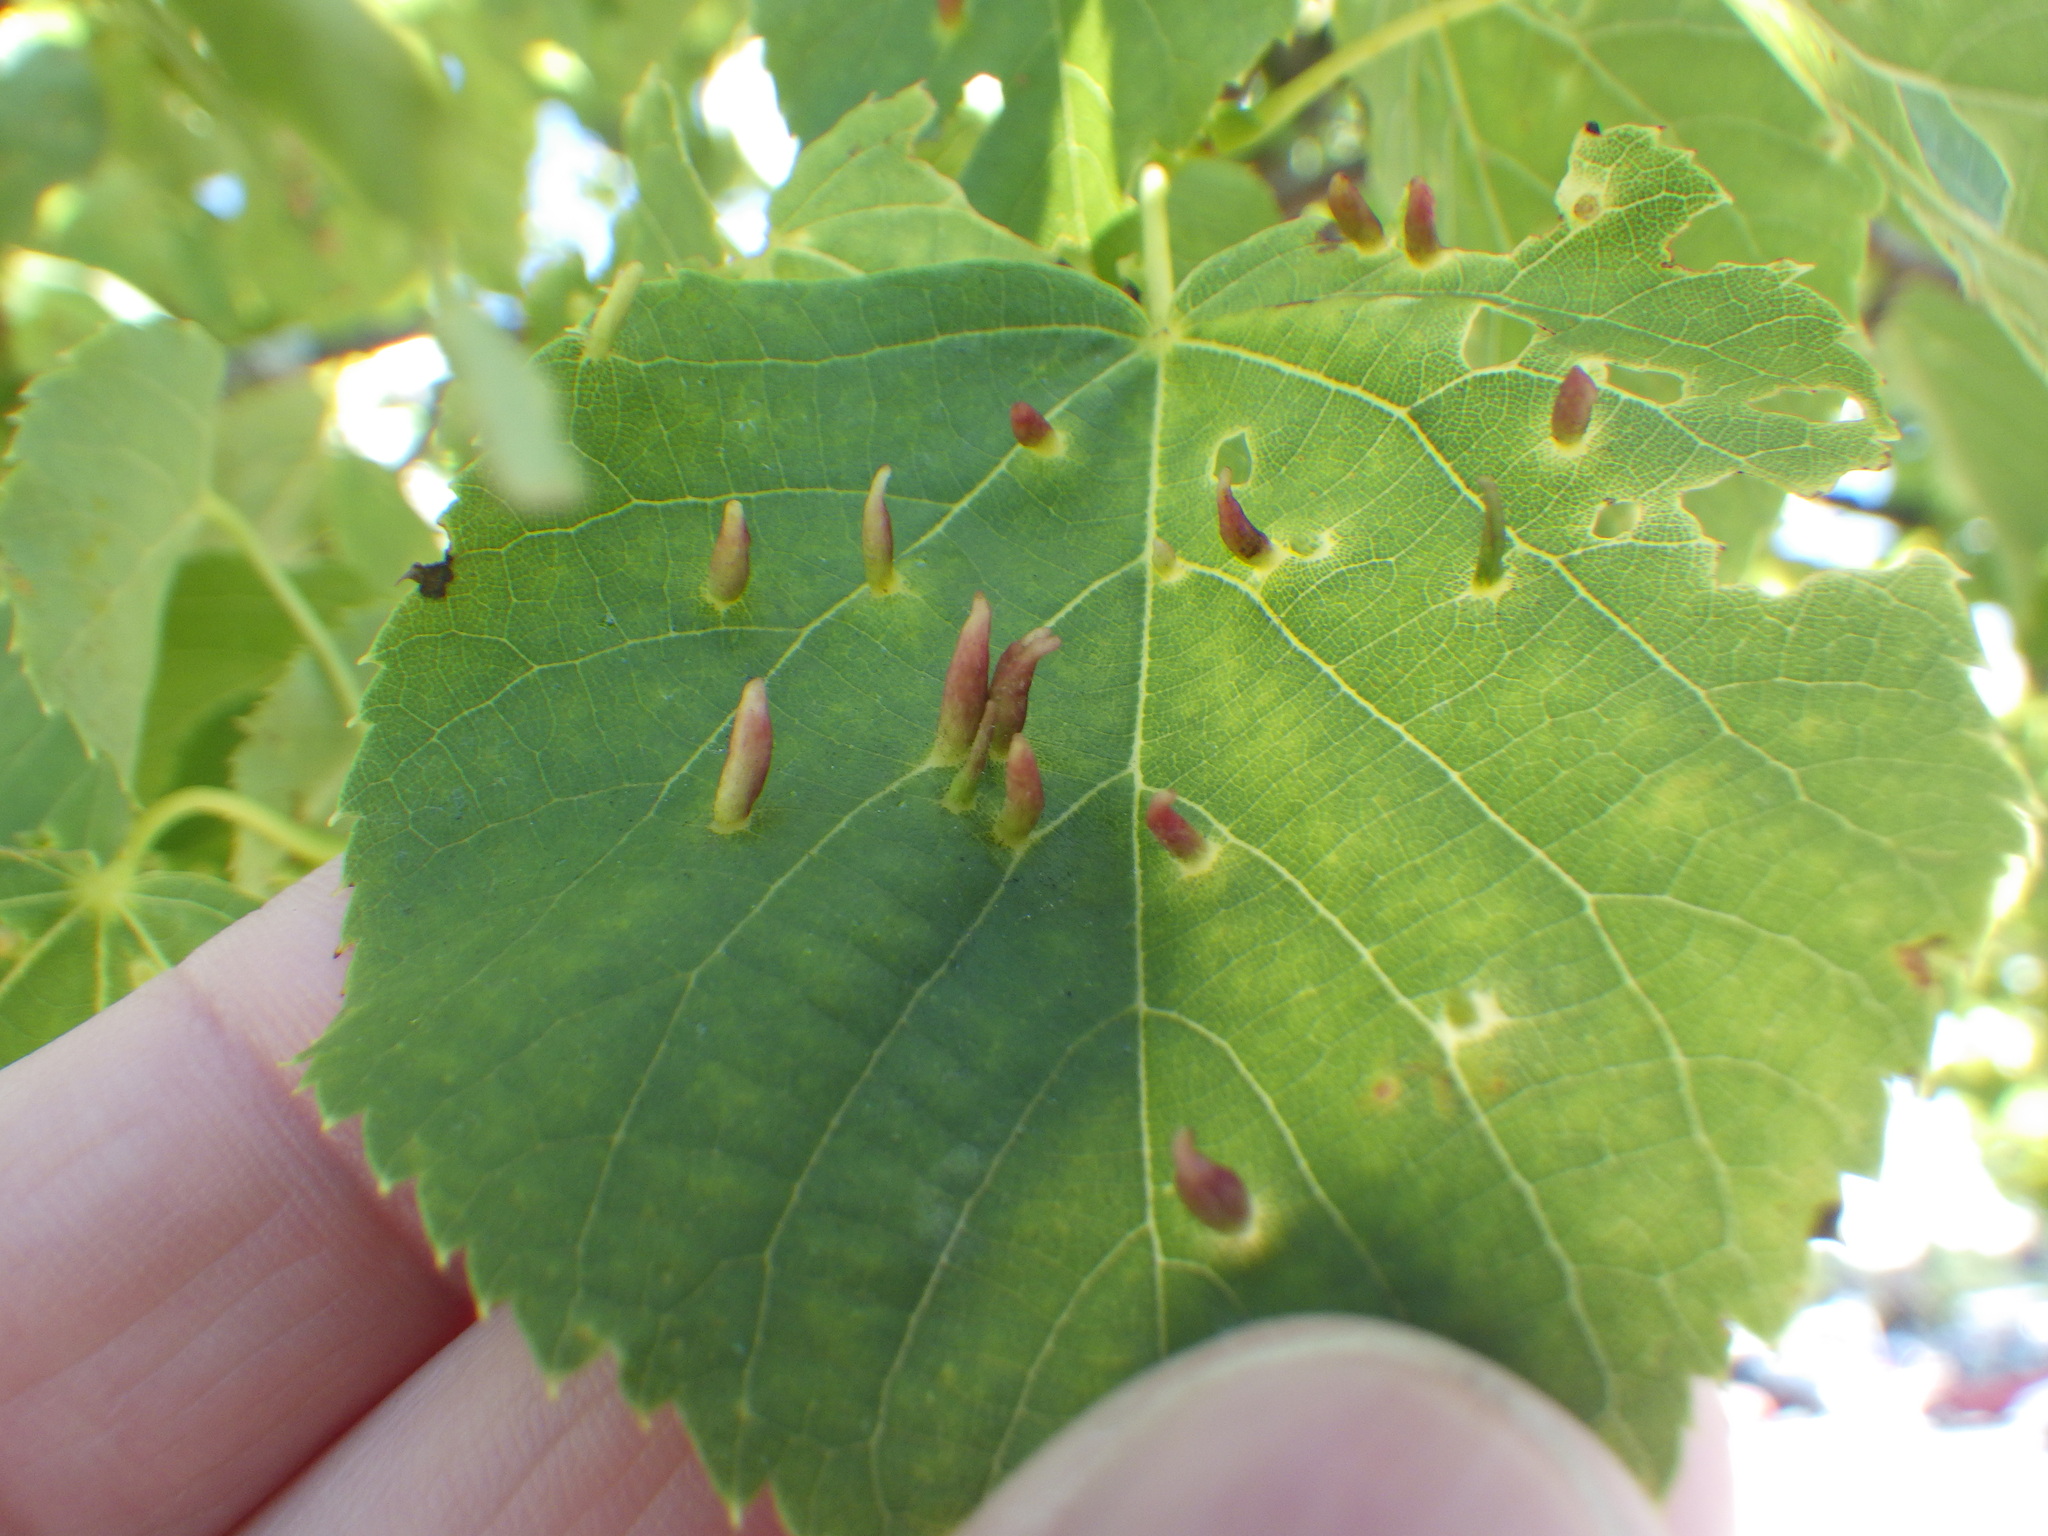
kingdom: Animalia
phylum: Arthropoda
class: Arachnida
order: Trombidiformes
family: Eriophyidae
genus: Eriophyes
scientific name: Eriophyes tiliae
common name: Red nail gall mite
